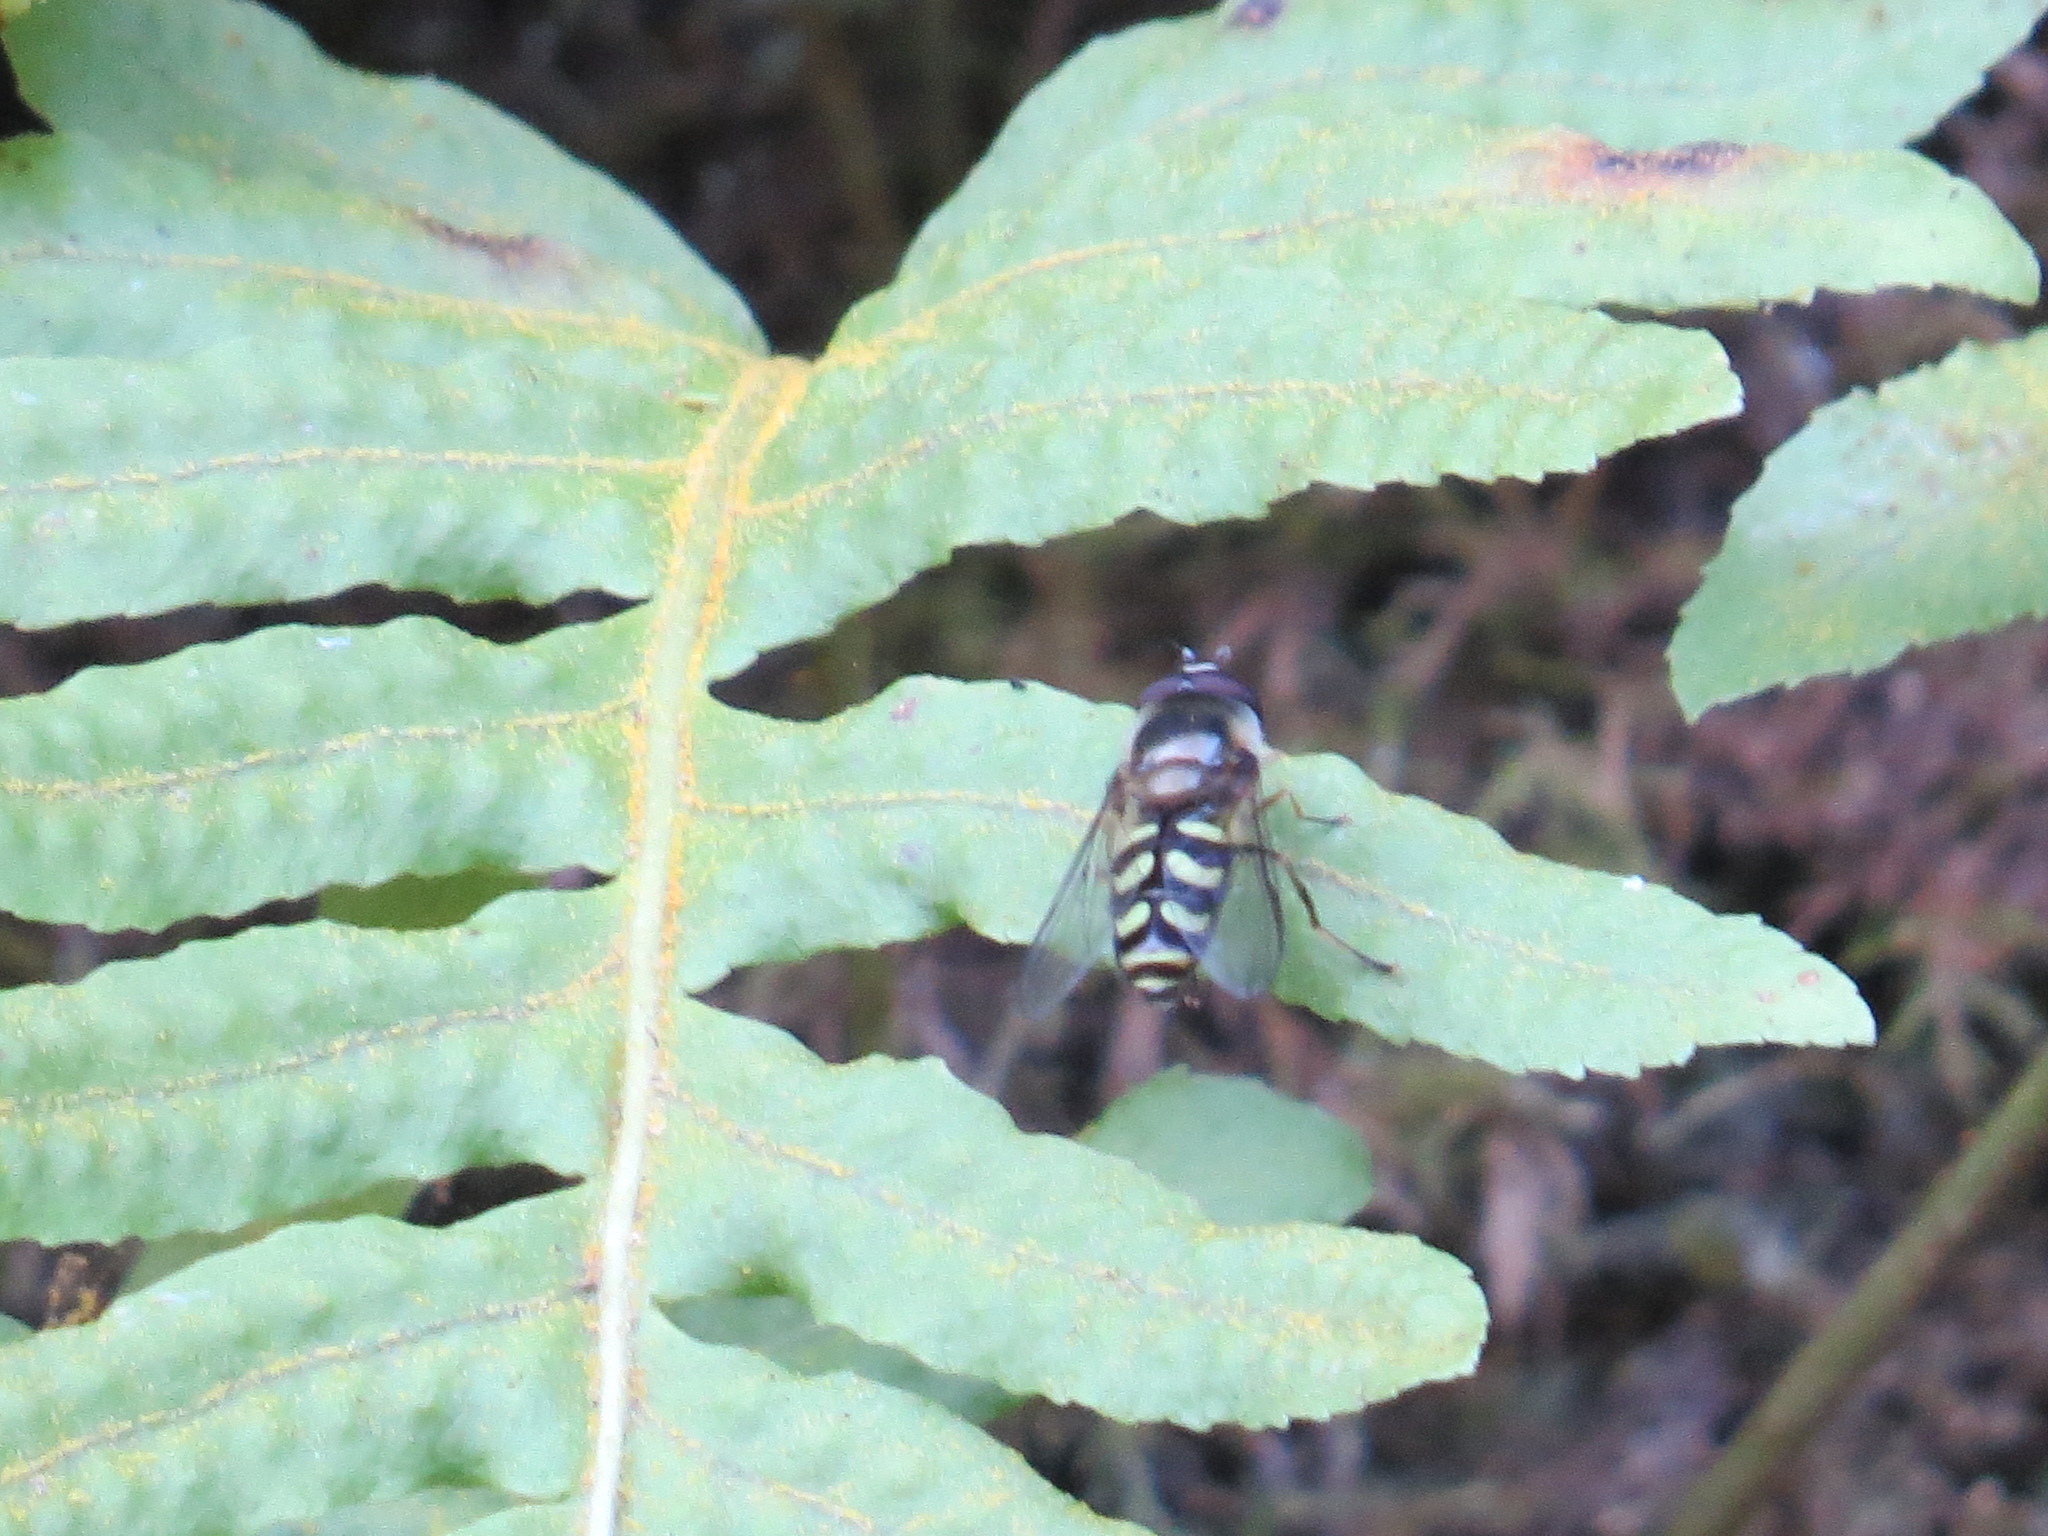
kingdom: Animalia
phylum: Arthropoda
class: Insecta
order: Diptera
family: Syrphidae
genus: Lapposyrphus
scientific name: Lapposyrphus lapponicus
